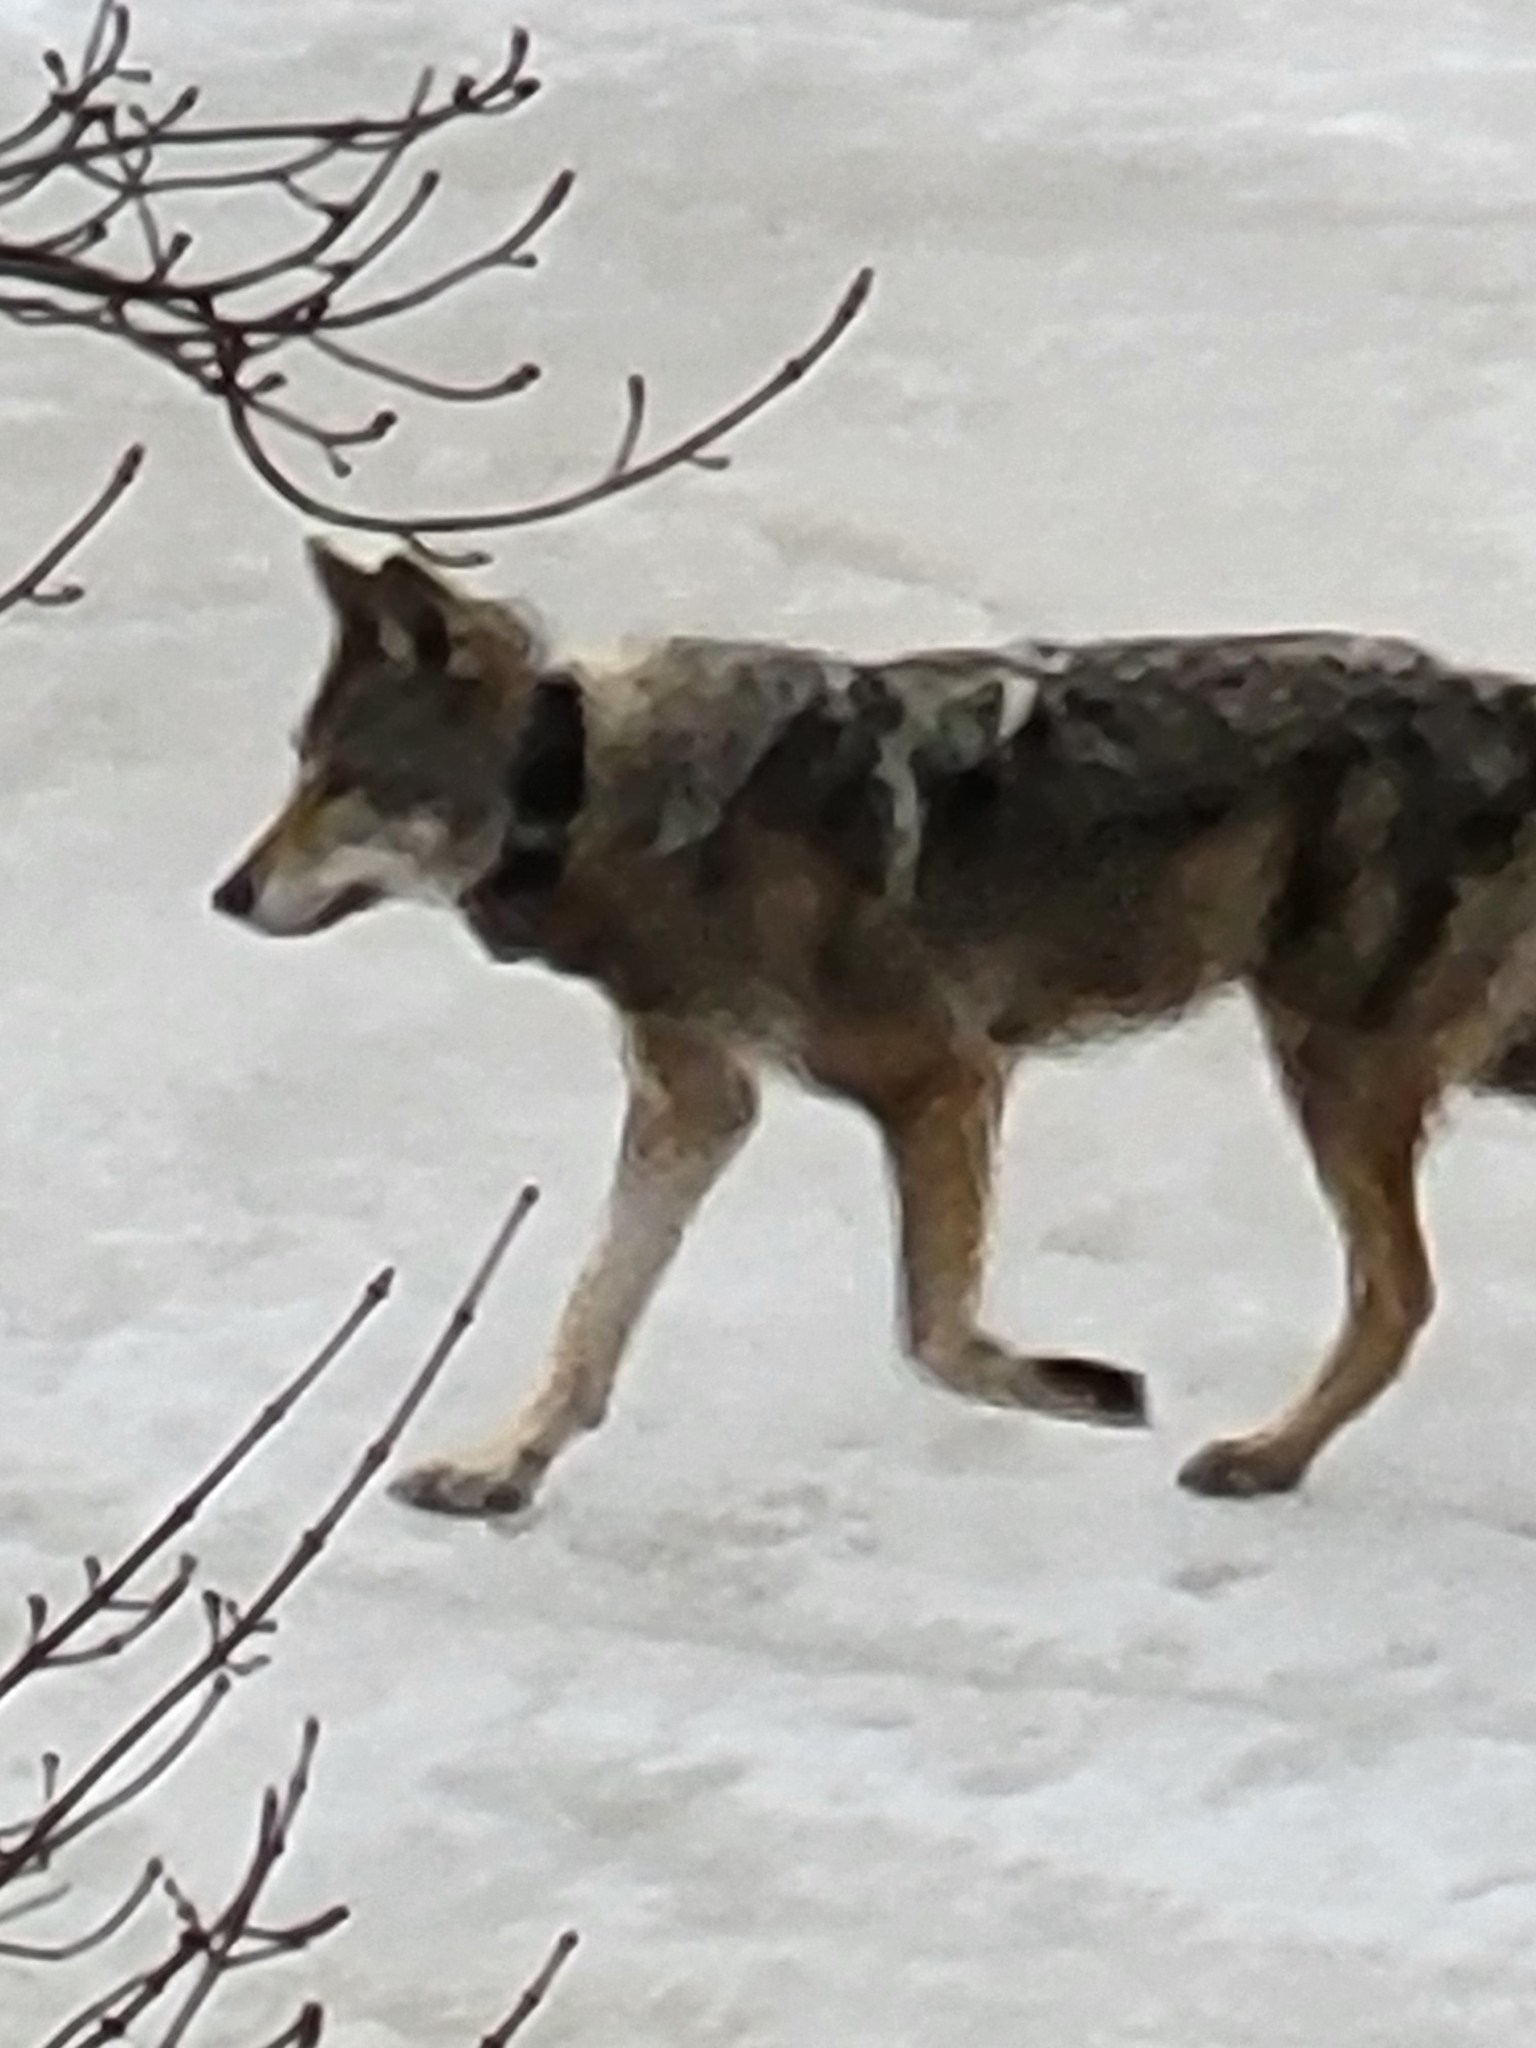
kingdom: Animalia
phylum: Chordata
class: Mammalia
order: Carnivora
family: Canidae
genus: Canis
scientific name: Canis lycaon
